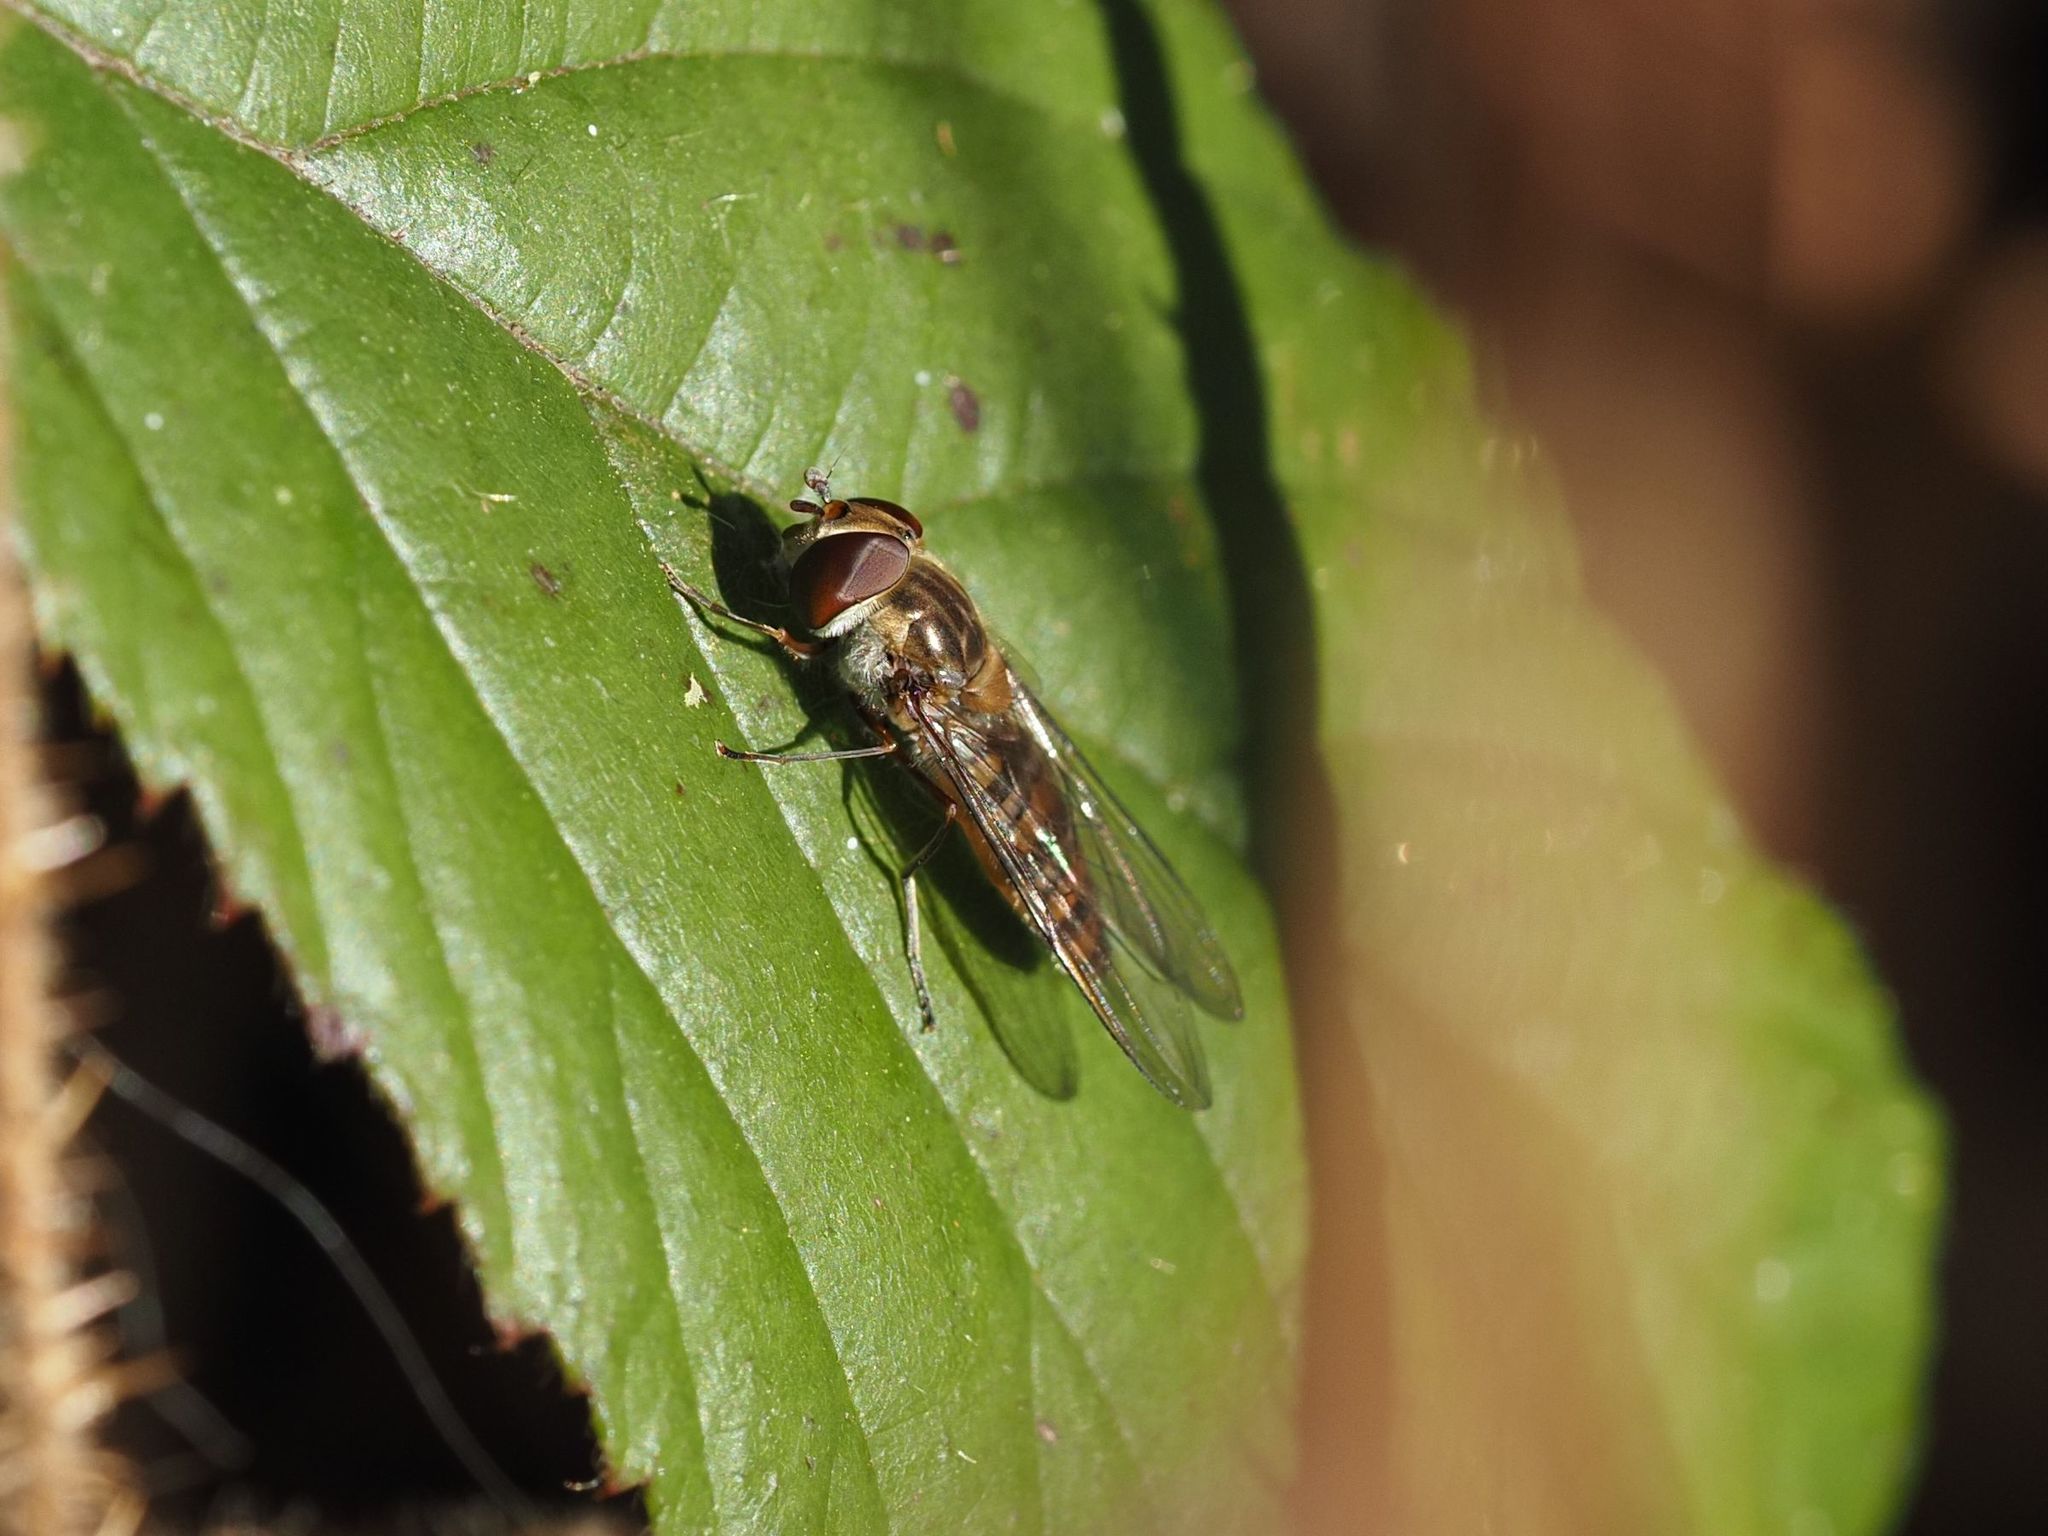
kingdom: Animalia
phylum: Arthropoda
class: Insecta
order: Diptera
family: Syrphidae
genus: Episyrphus
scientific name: Episyrphus balteatus
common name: Marmalade hoverfly
